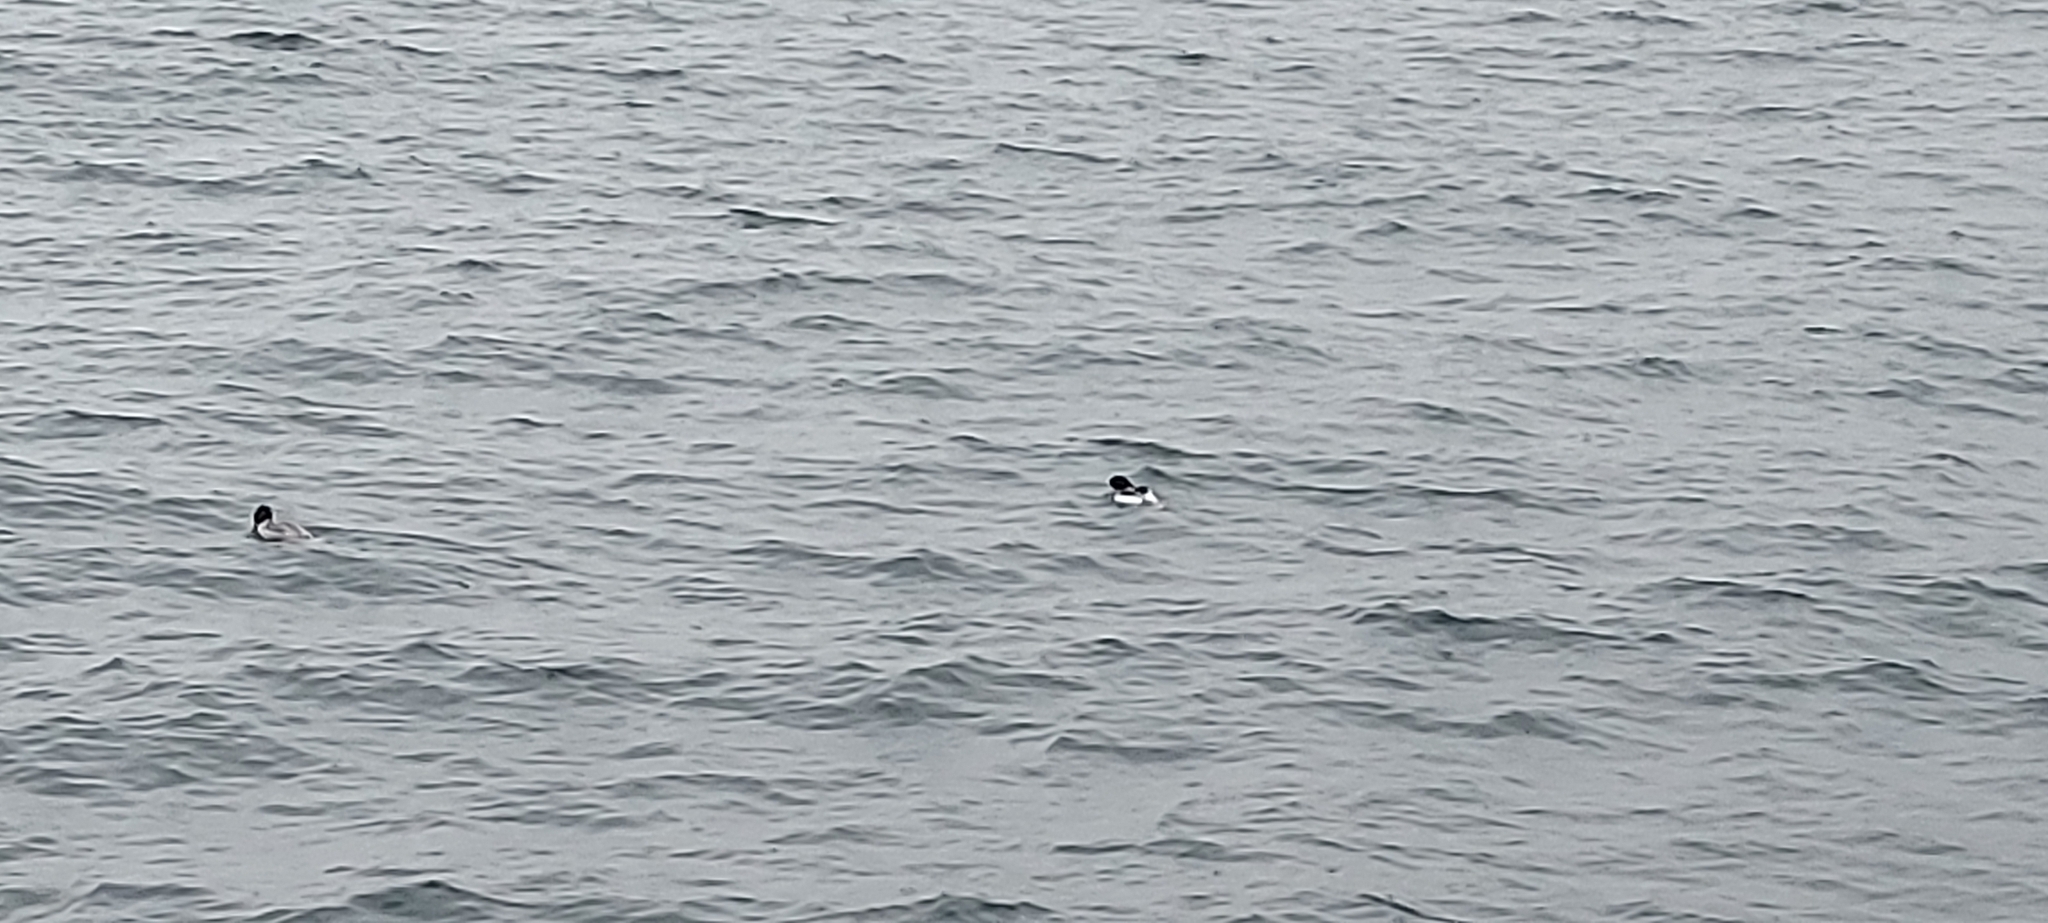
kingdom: Animalia
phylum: Chordata
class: Aves
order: Anseriformes
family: Anatidae
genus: Mergus
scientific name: Mergus merganser
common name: Common merganser
